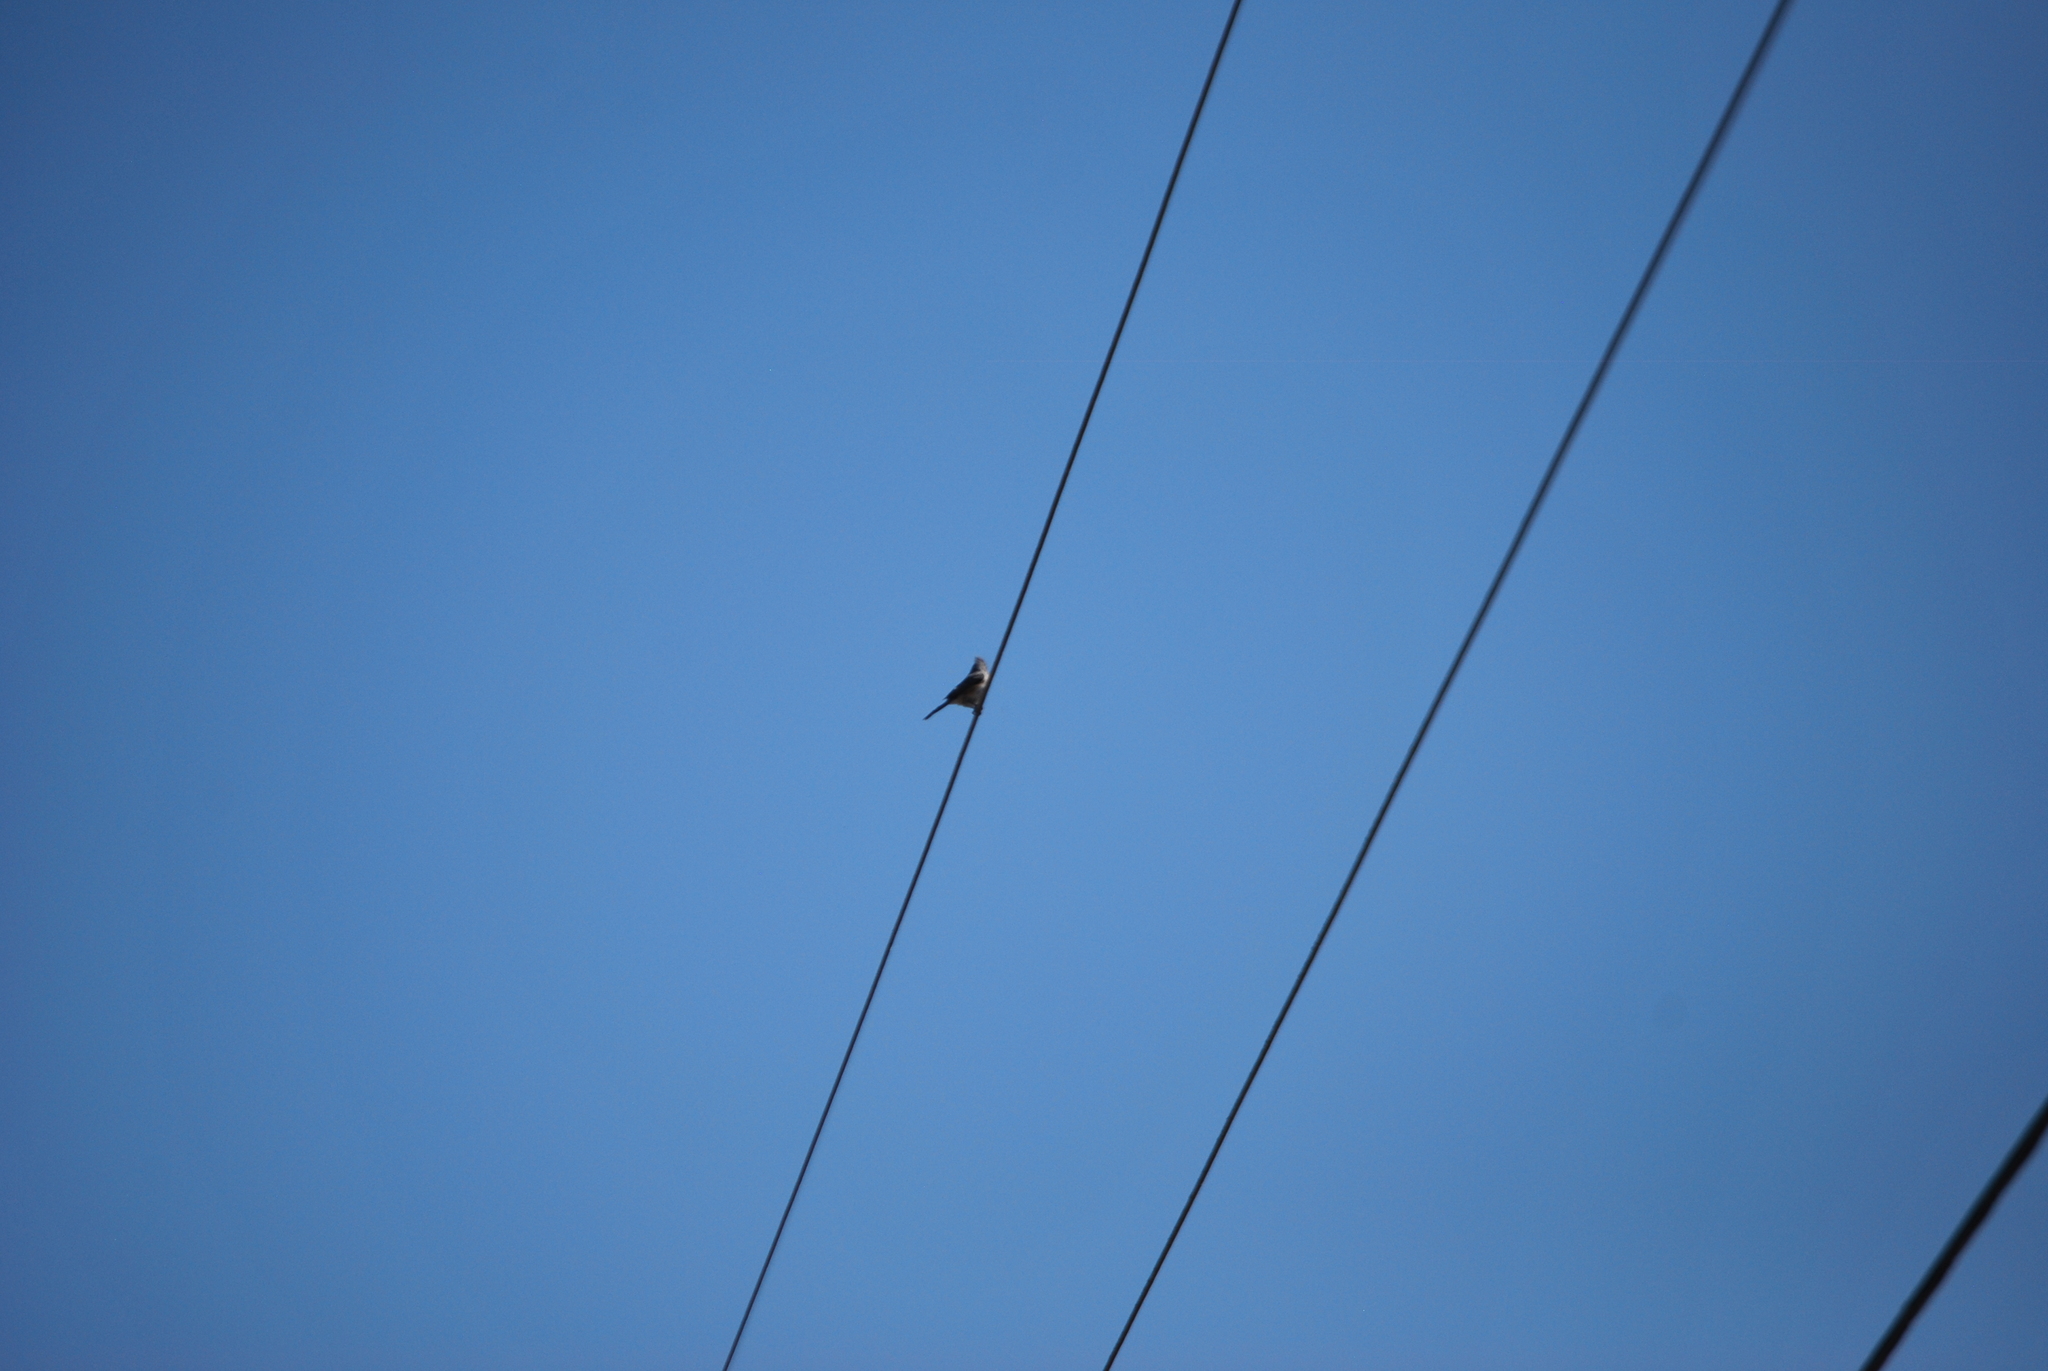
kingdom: Animalia
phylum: Chordata
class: Aves
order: Passeriformes
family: Paridae
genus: Baeolophus
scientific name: Baeolophus bicolor
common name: Tufted titmouse
